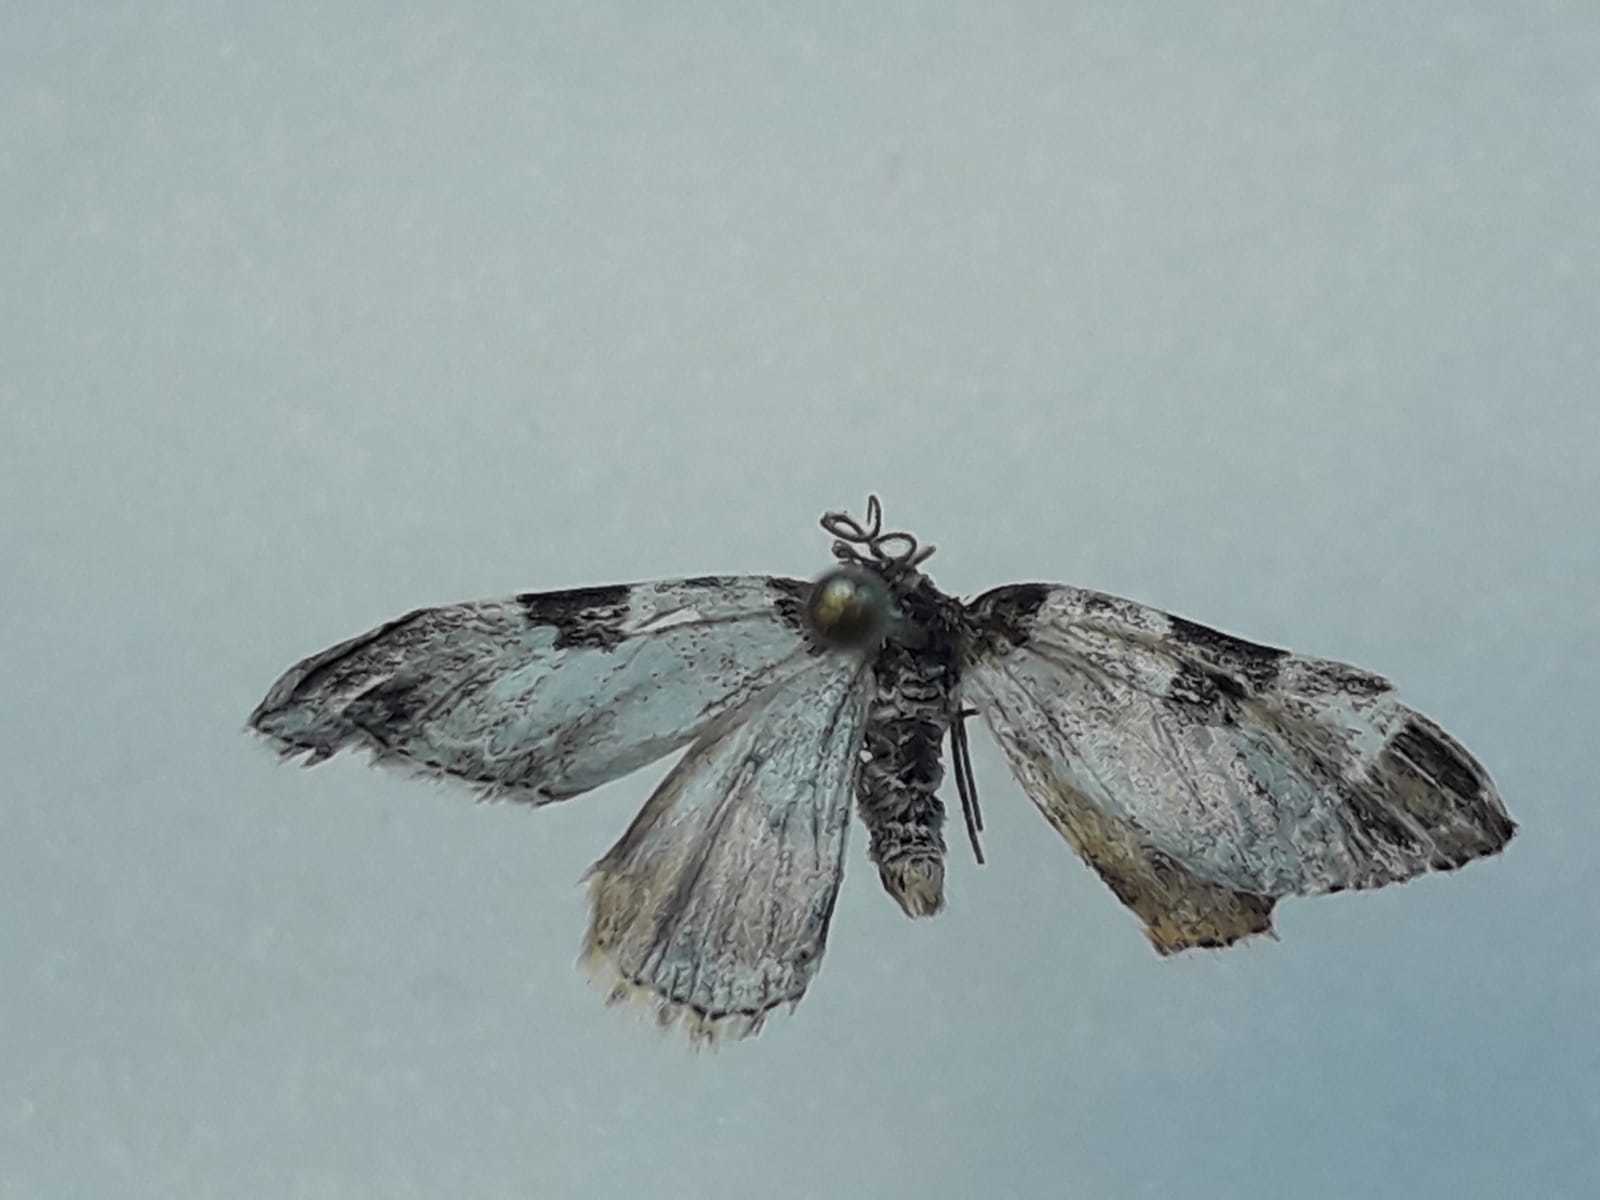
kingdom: Animalia
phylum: Arthropoda
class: Insecta
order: Lepidoptera
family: Geometridae
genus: Xanthorhoe
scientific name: Xanthorhoe fluctuata
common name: Garden carpet
